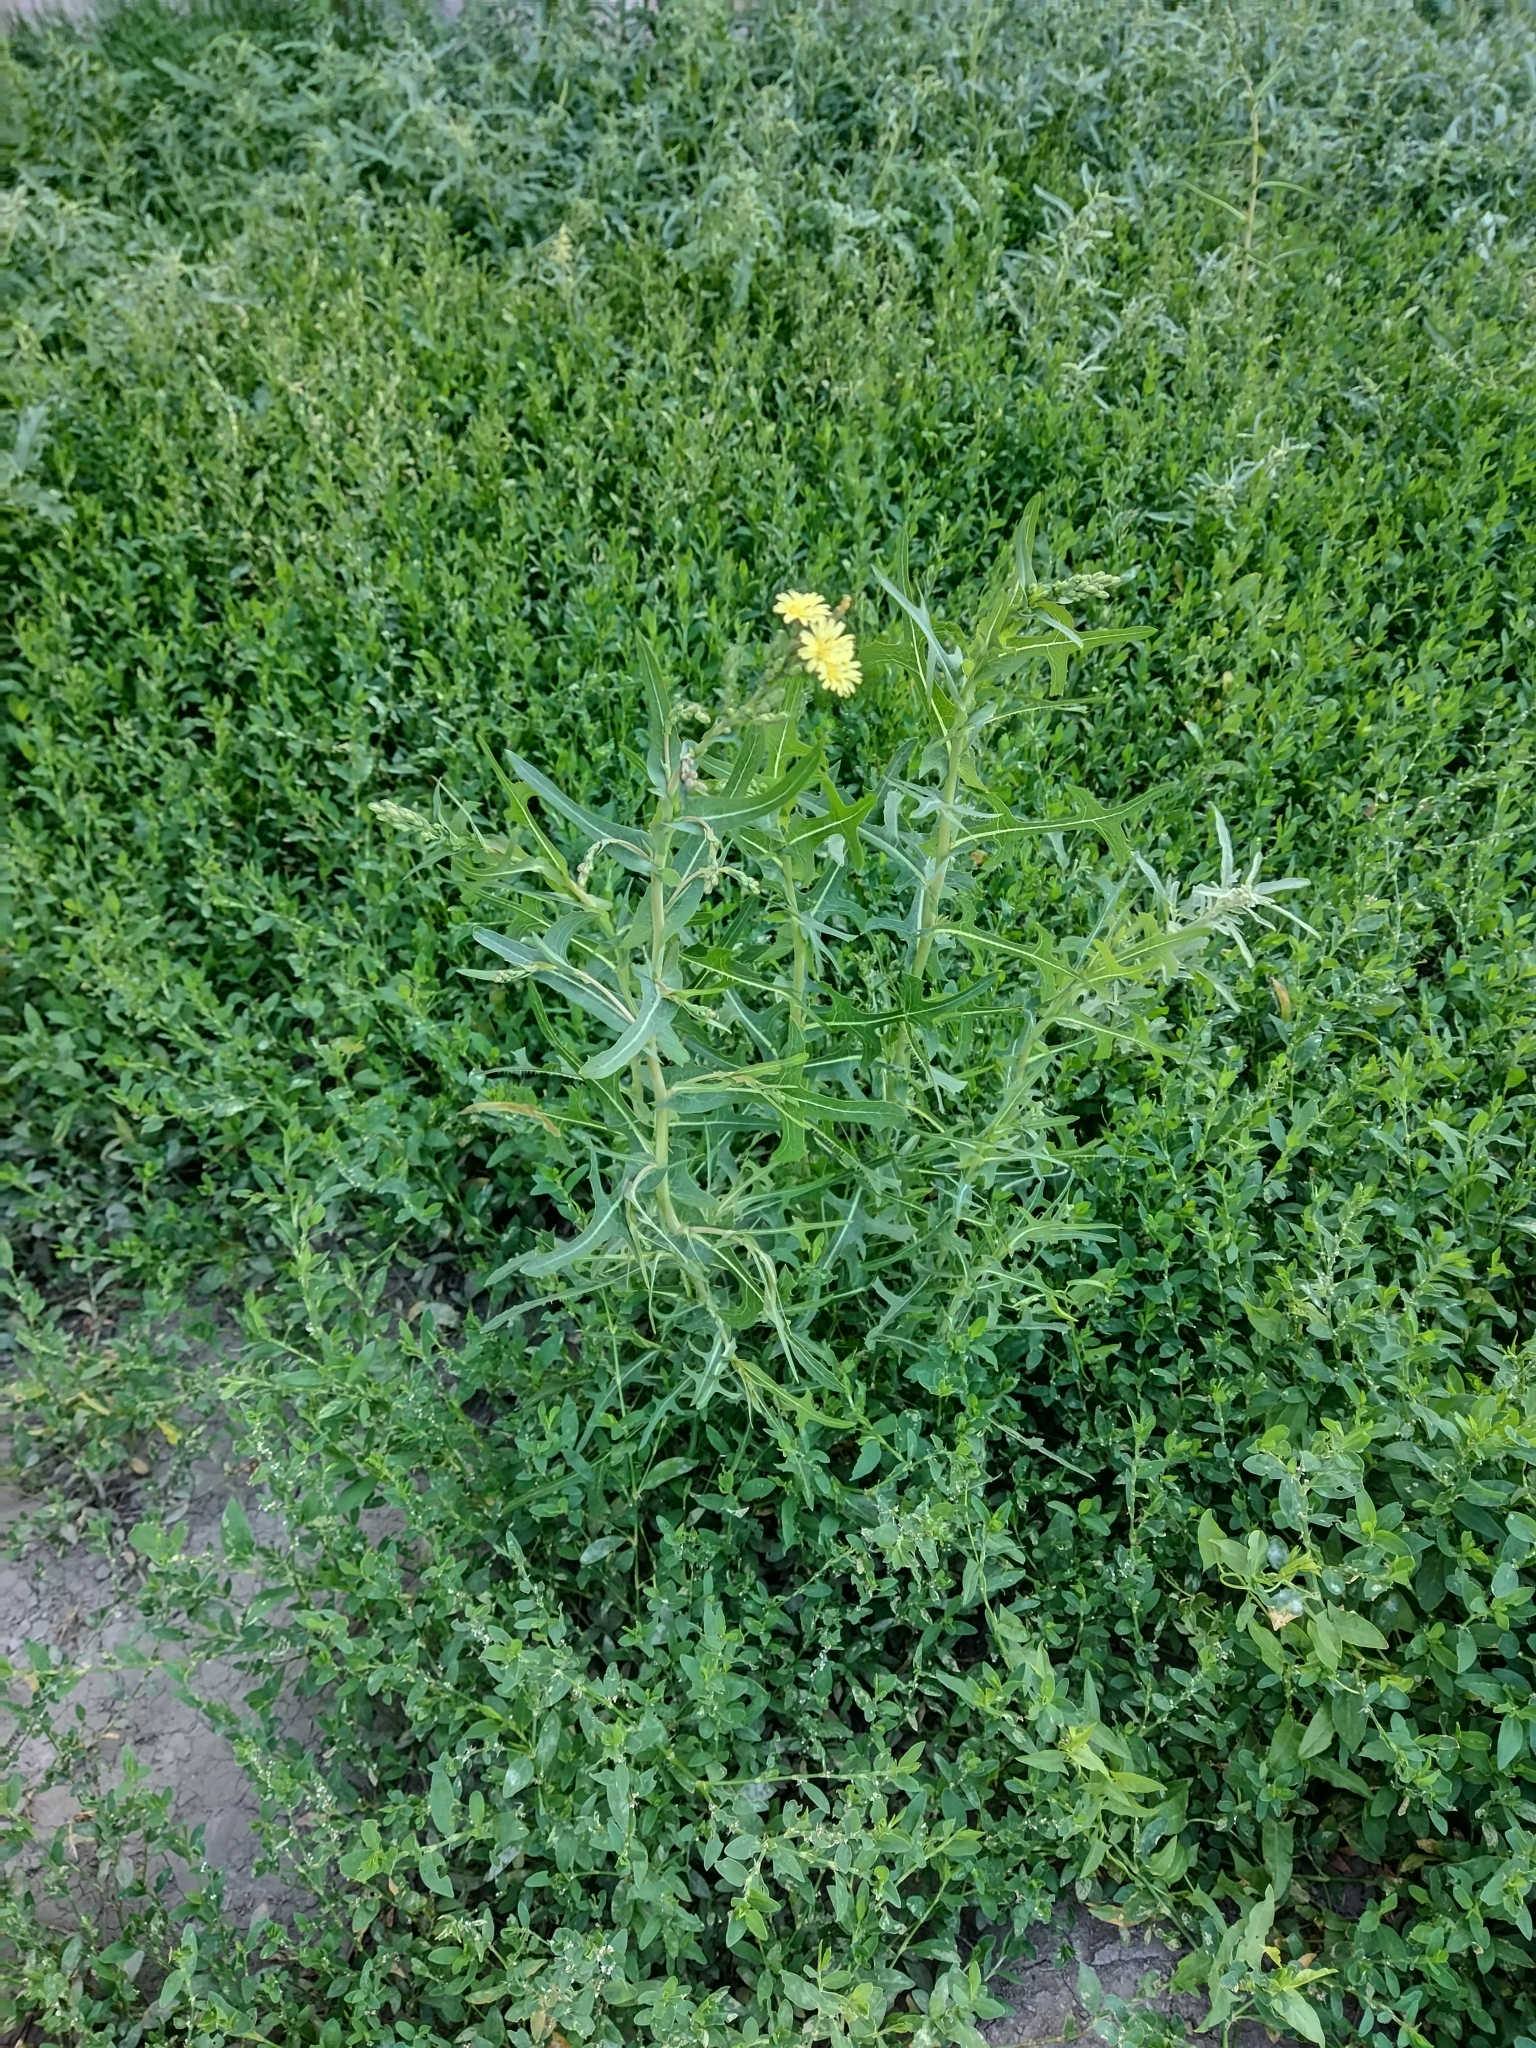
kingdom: Plantae
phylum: Tracheophyta
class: Magnoliopsida
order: Asterales
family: Asteraceae
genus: Lactuca
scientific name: Lactuca serriola
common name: Prickly lettuce
